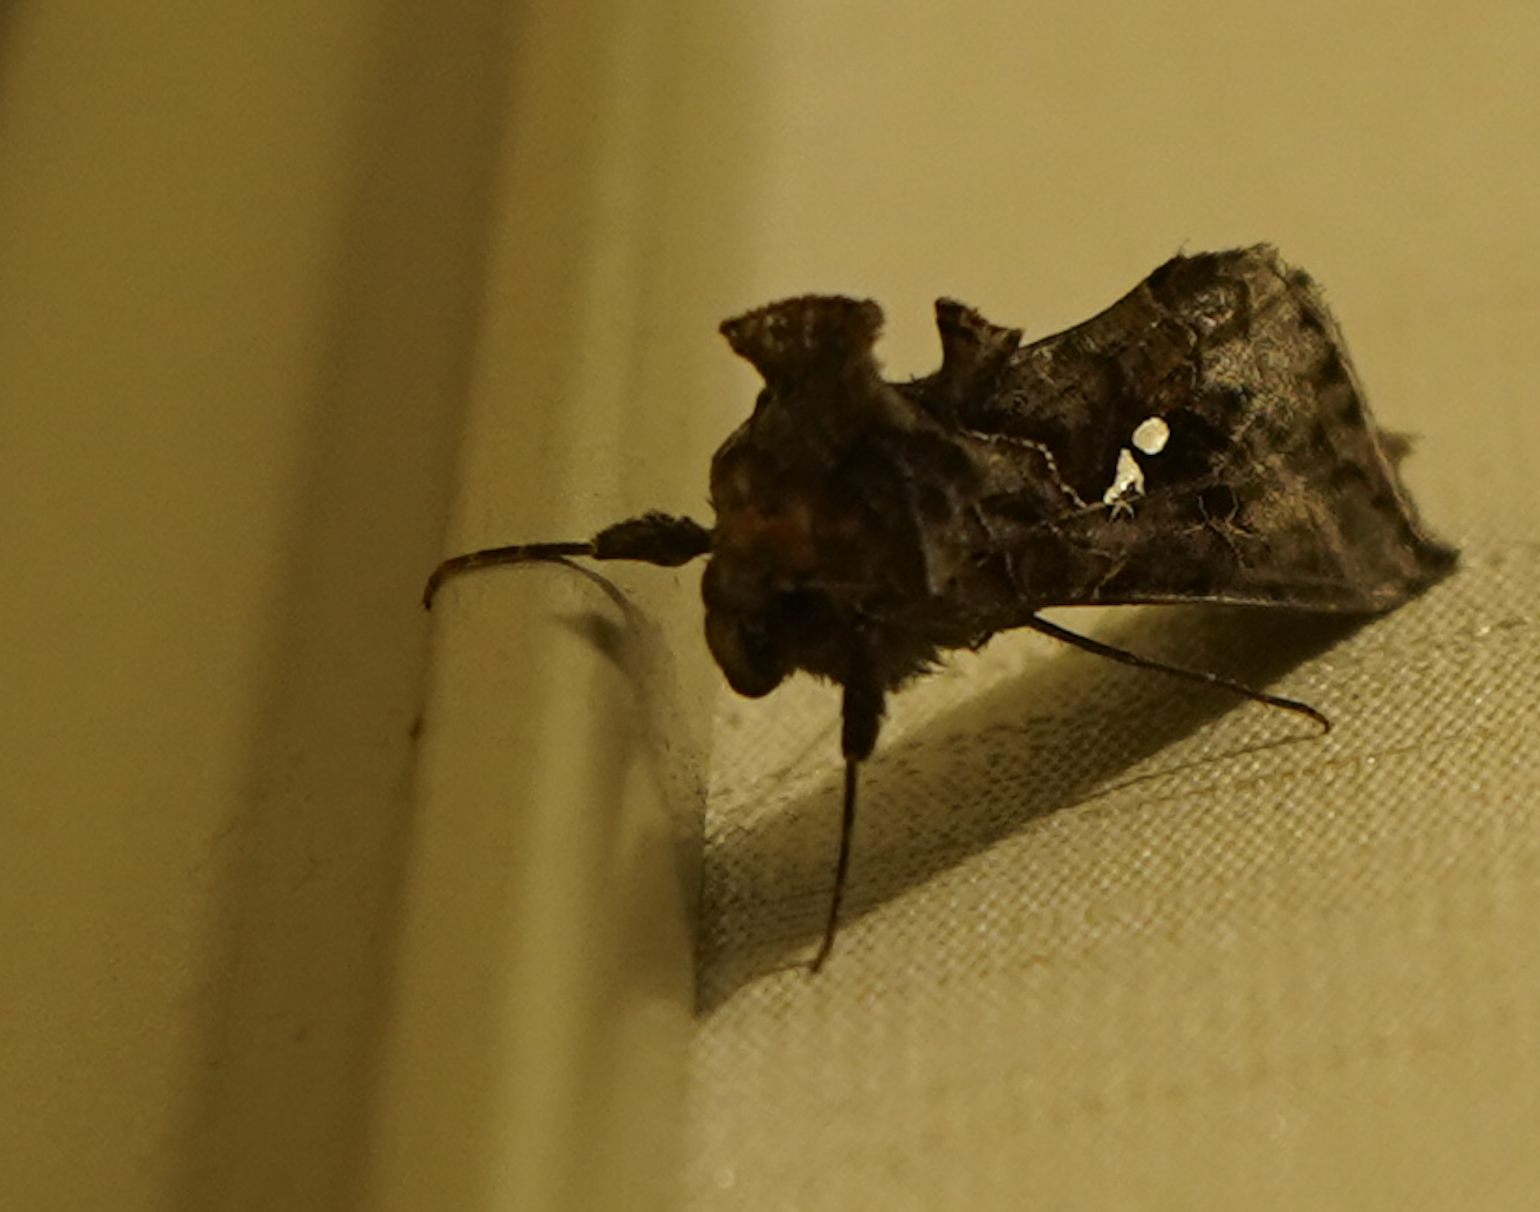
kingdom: Animalia
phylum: Arthropoda
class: Insecta
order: Lepidoptera
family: Noctuidae
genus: Autographa
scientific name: Autographa precationis
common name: Common looper moth
